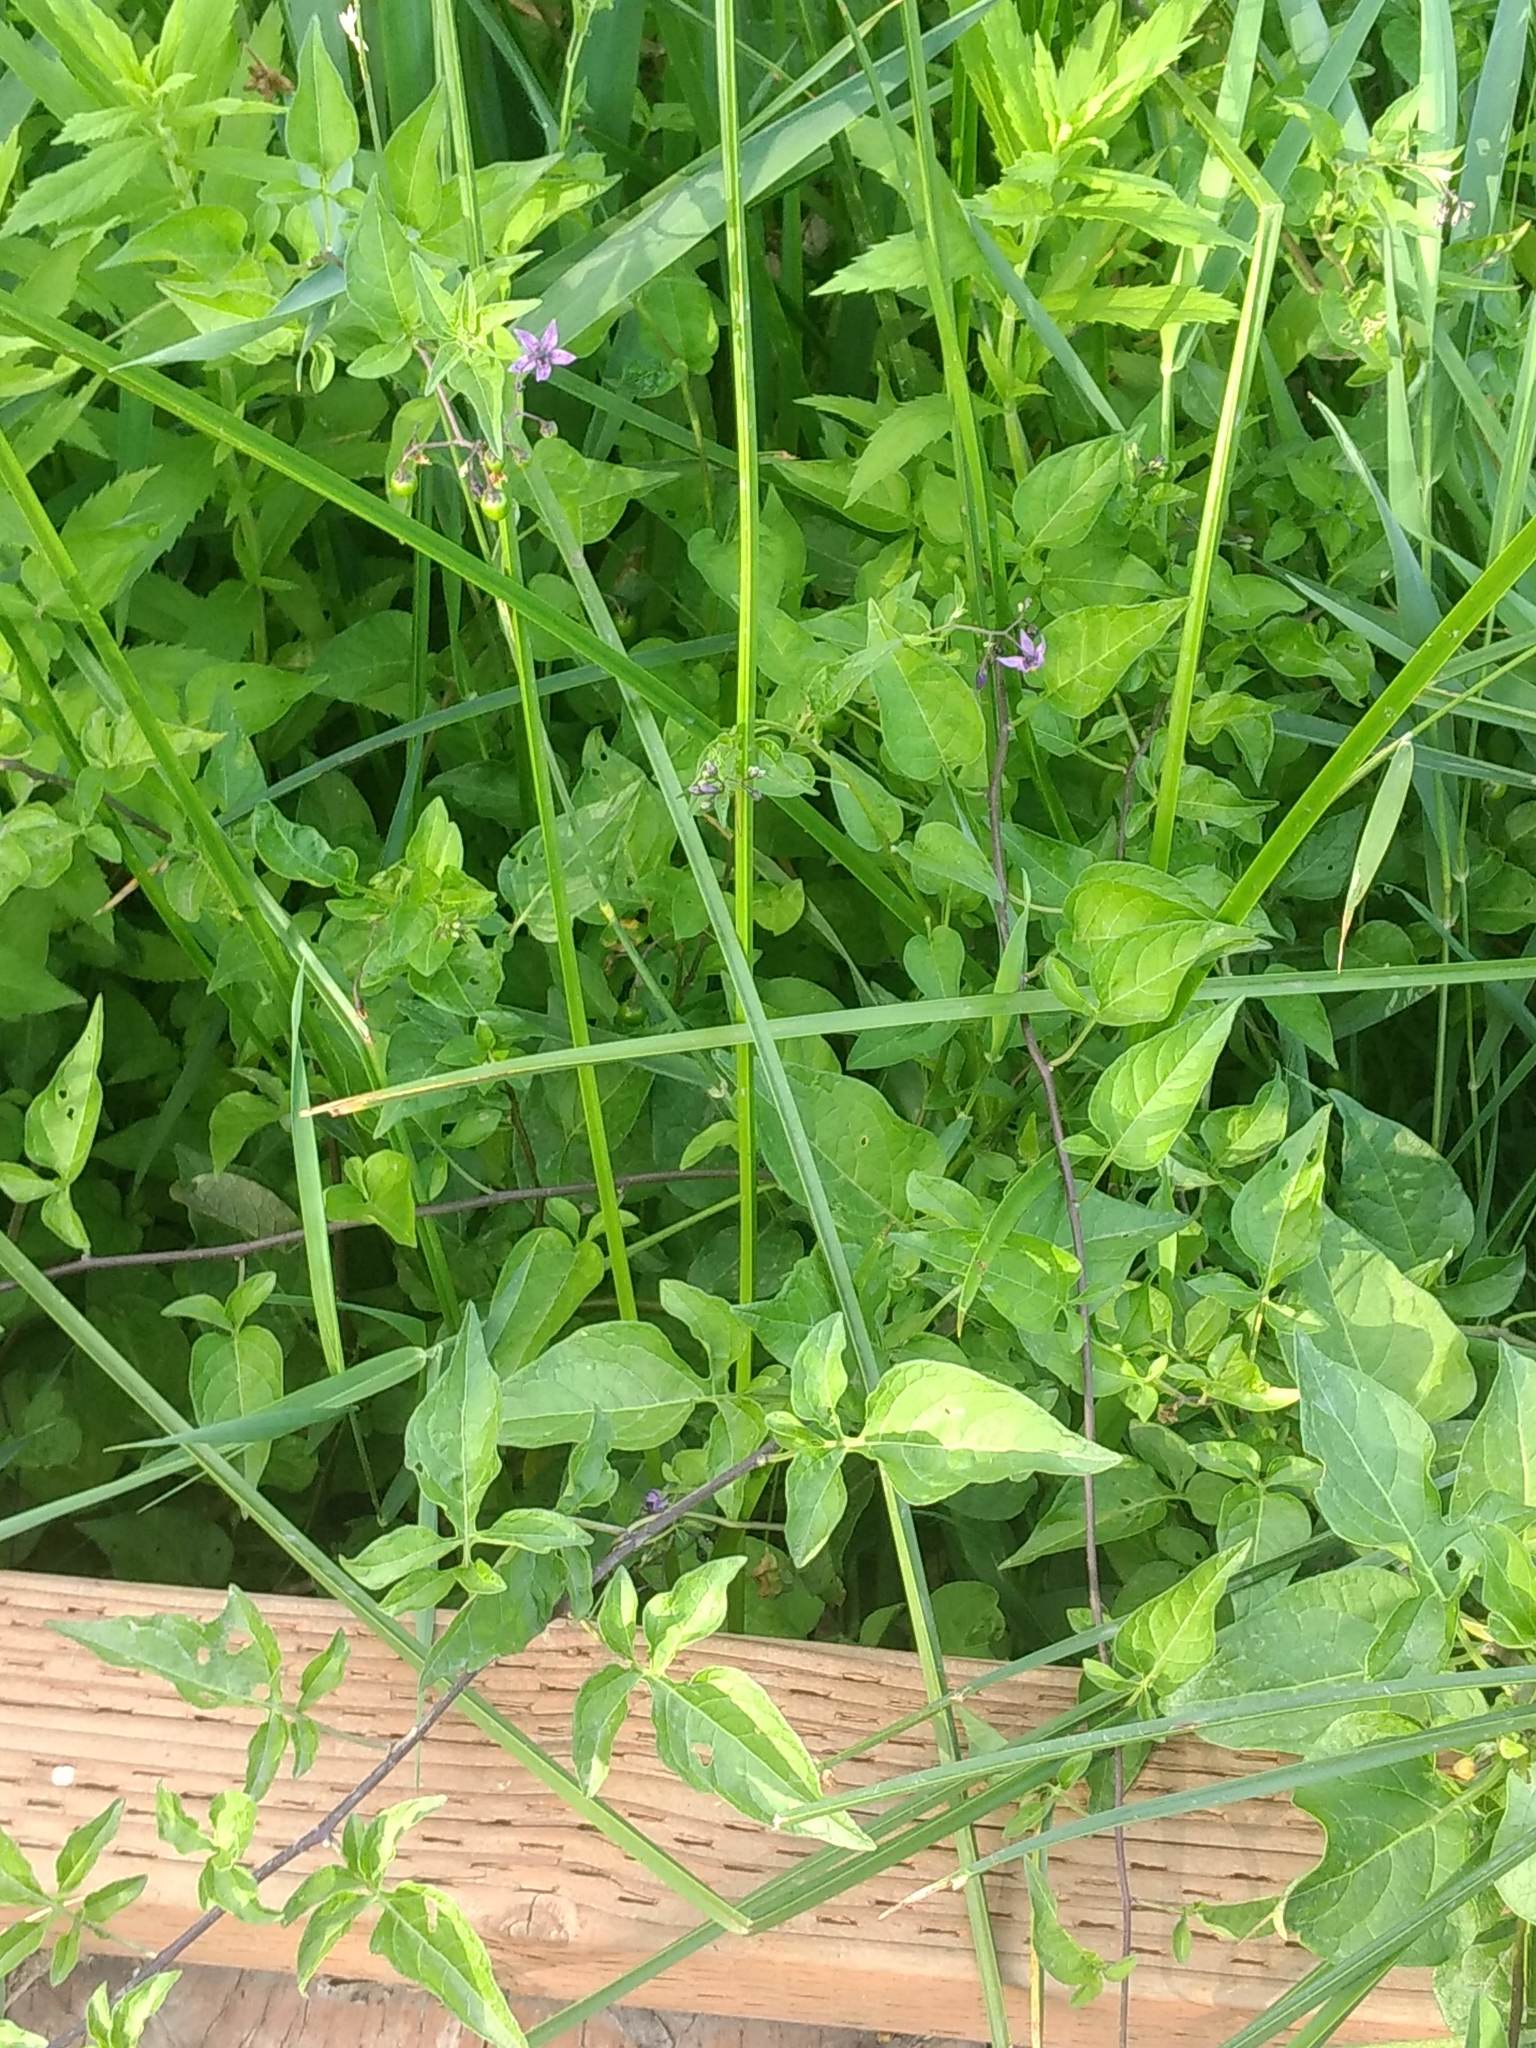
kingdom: Plantae
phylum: Tracheophyta
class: Magnoliopsida
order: Solanales
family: Solanaceae
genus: Solanum
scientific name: Solanum dulcamara
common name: Climbing nightshade
